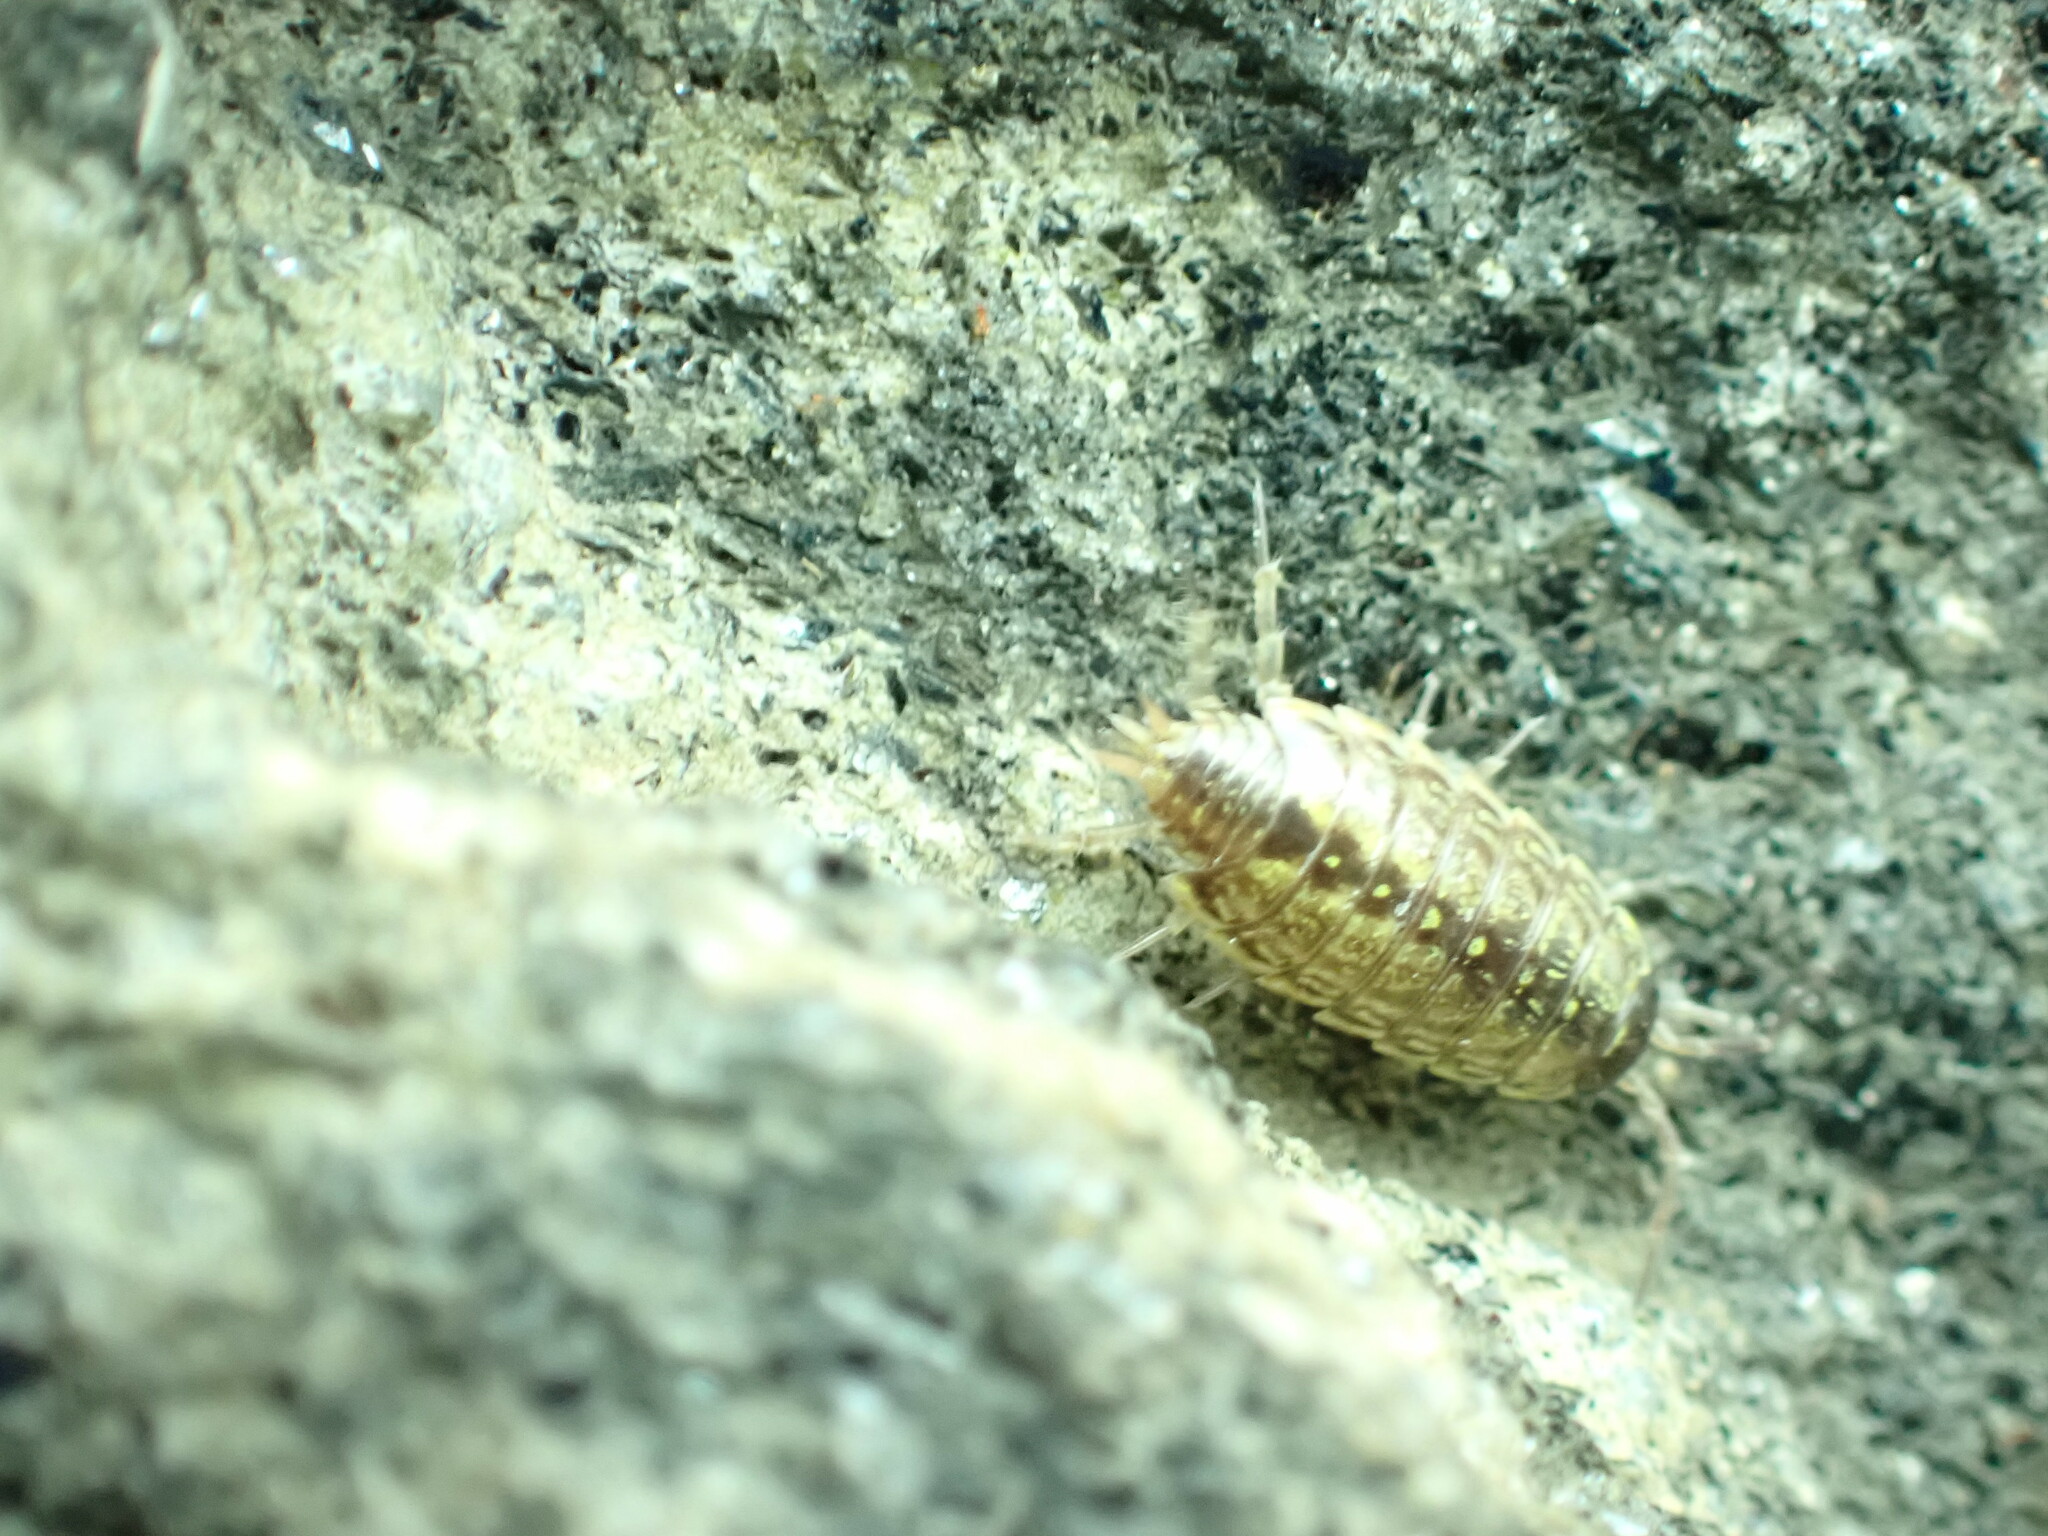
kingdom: Animalia
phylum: Arthropoda
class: Malacostraca
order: Isopoda
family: Philosciidae
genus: Philoscia
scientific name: Philoscia muscorum
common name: Common striped woodlouse
